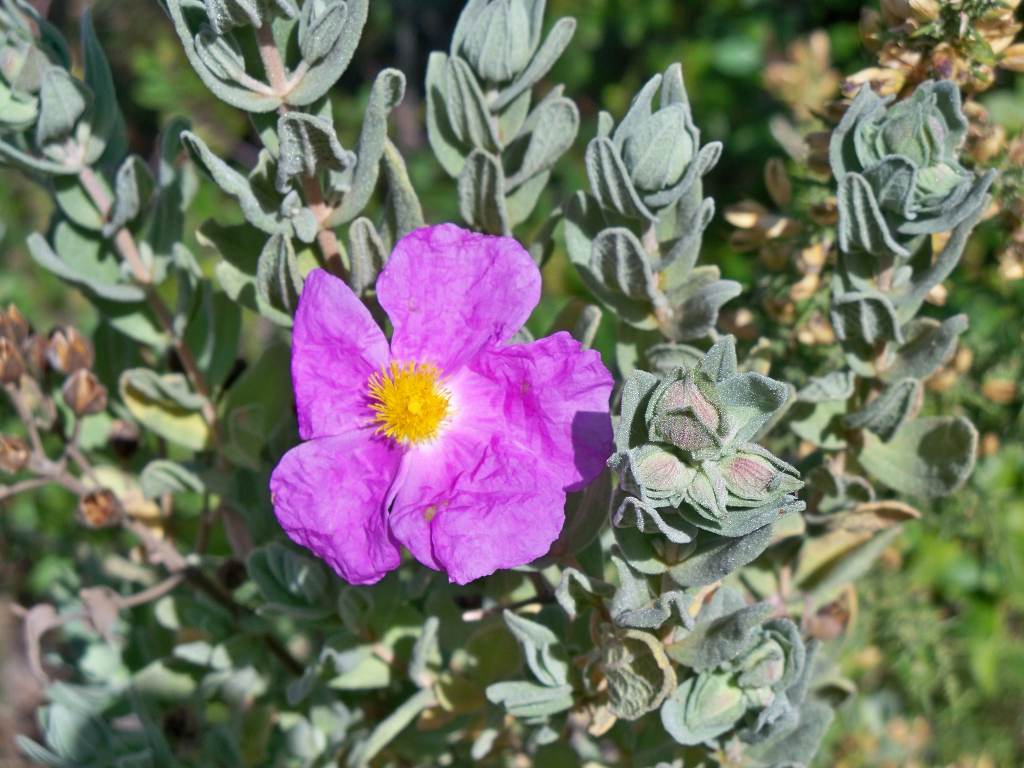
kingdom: Plantae
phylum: Tracheophyta
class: Magnoliopsida
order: Malvales
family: Cistaceae
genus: Cistus
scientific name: Cistus albidus
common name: White-leaf rock-rose
